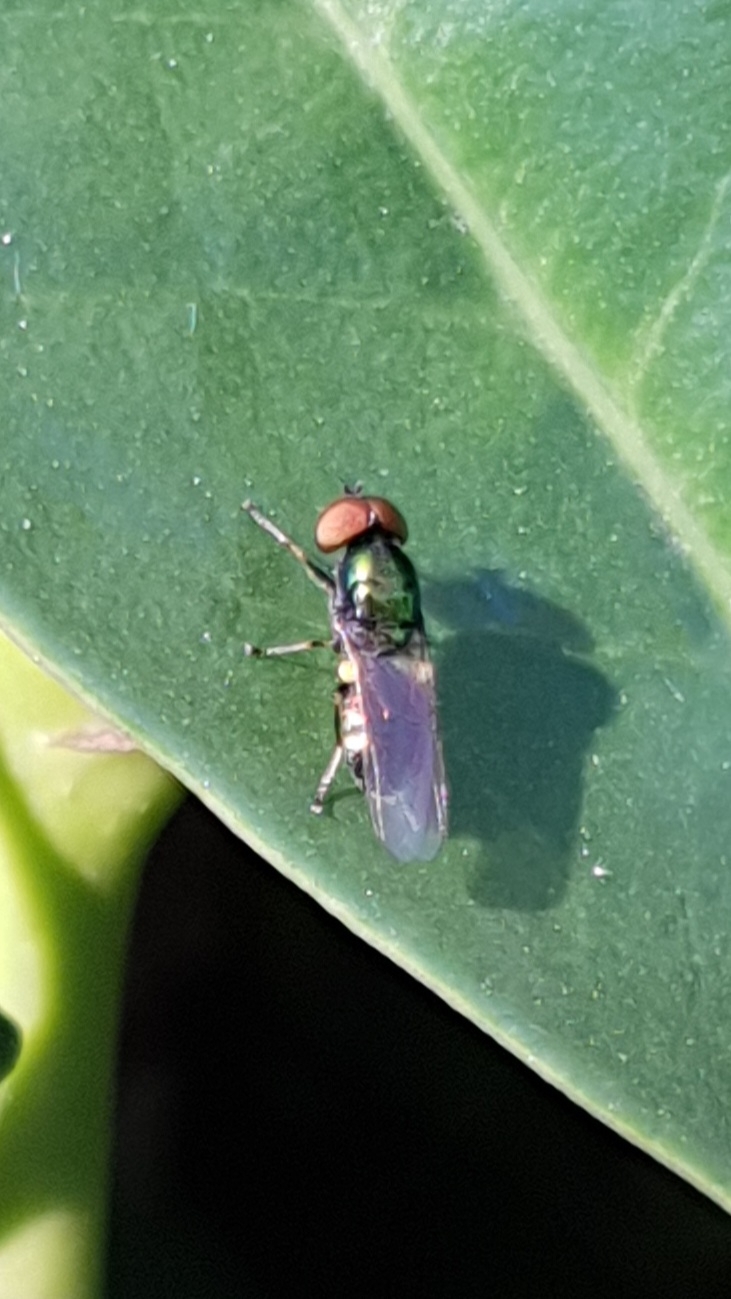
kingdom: Animalia
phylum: Arthropoda
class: Insecta
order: Diptera
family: Stratiomyidae
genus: Microchrysa
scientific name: Microchrysa polita
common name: Black-horned gem
